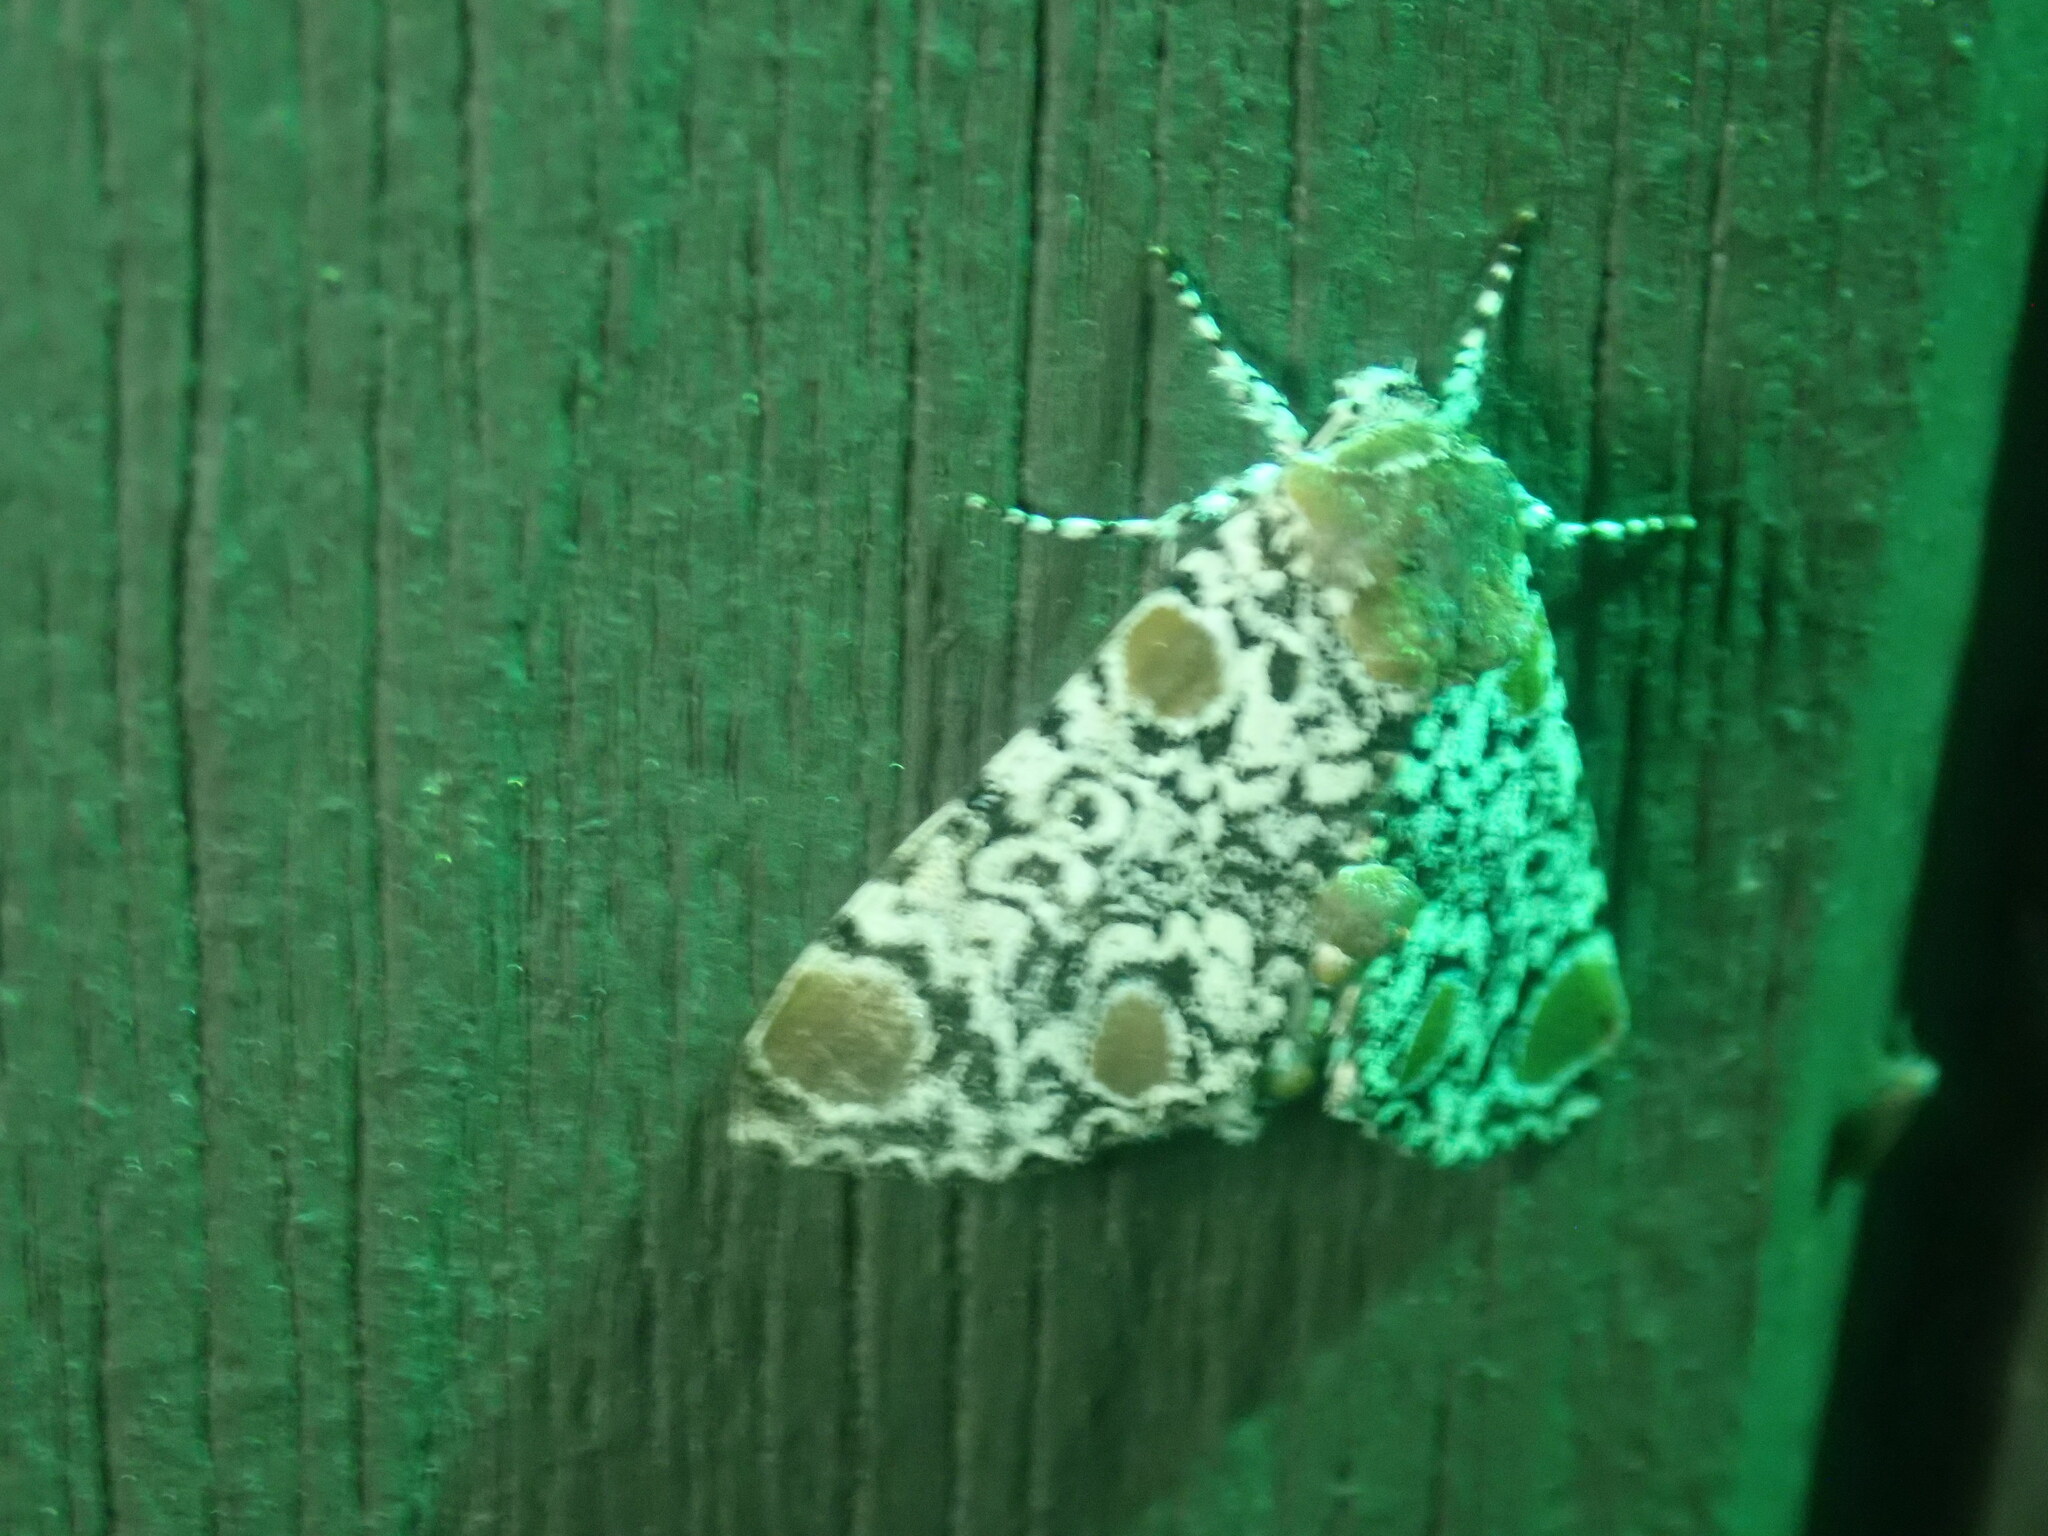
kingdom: Animalia
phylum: Arthropoda
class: Insecta
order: Lepidoptera
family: Noctuidae
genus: Harrisimemna
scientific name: Harrisimemna trisignata
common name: Harris threespot
